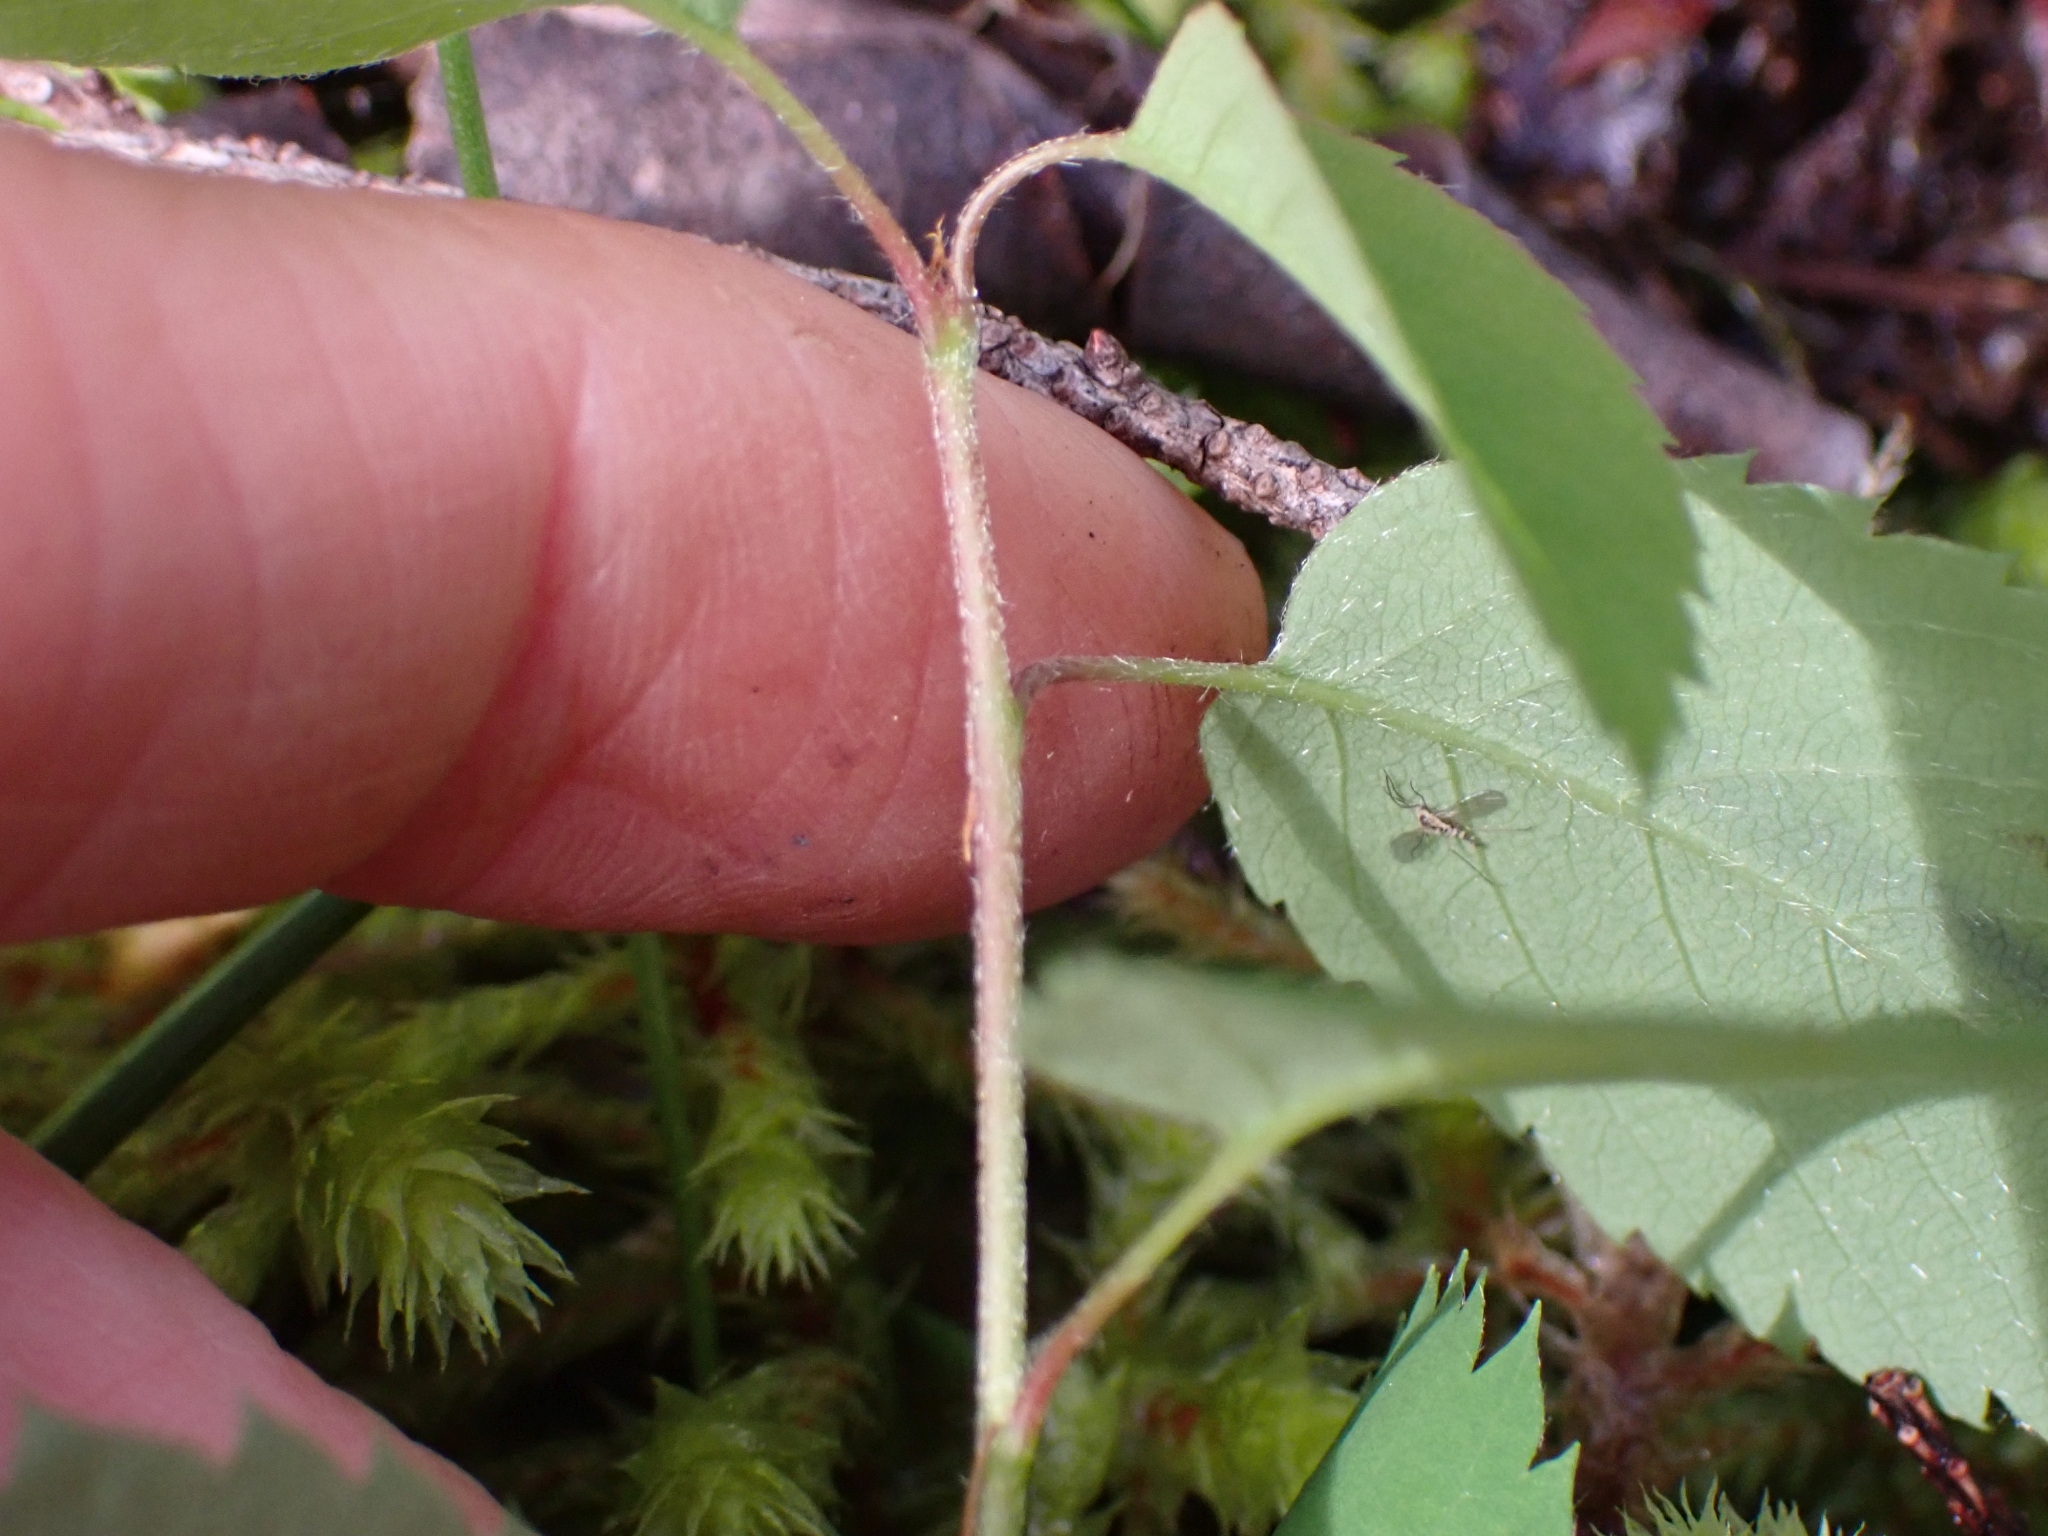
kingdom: Plantae
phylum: Tracheophyta
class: Magnoliopsida
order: Rosales
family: Rosaceae
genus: Amelanchier
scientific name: Amelanchier alnifolia
